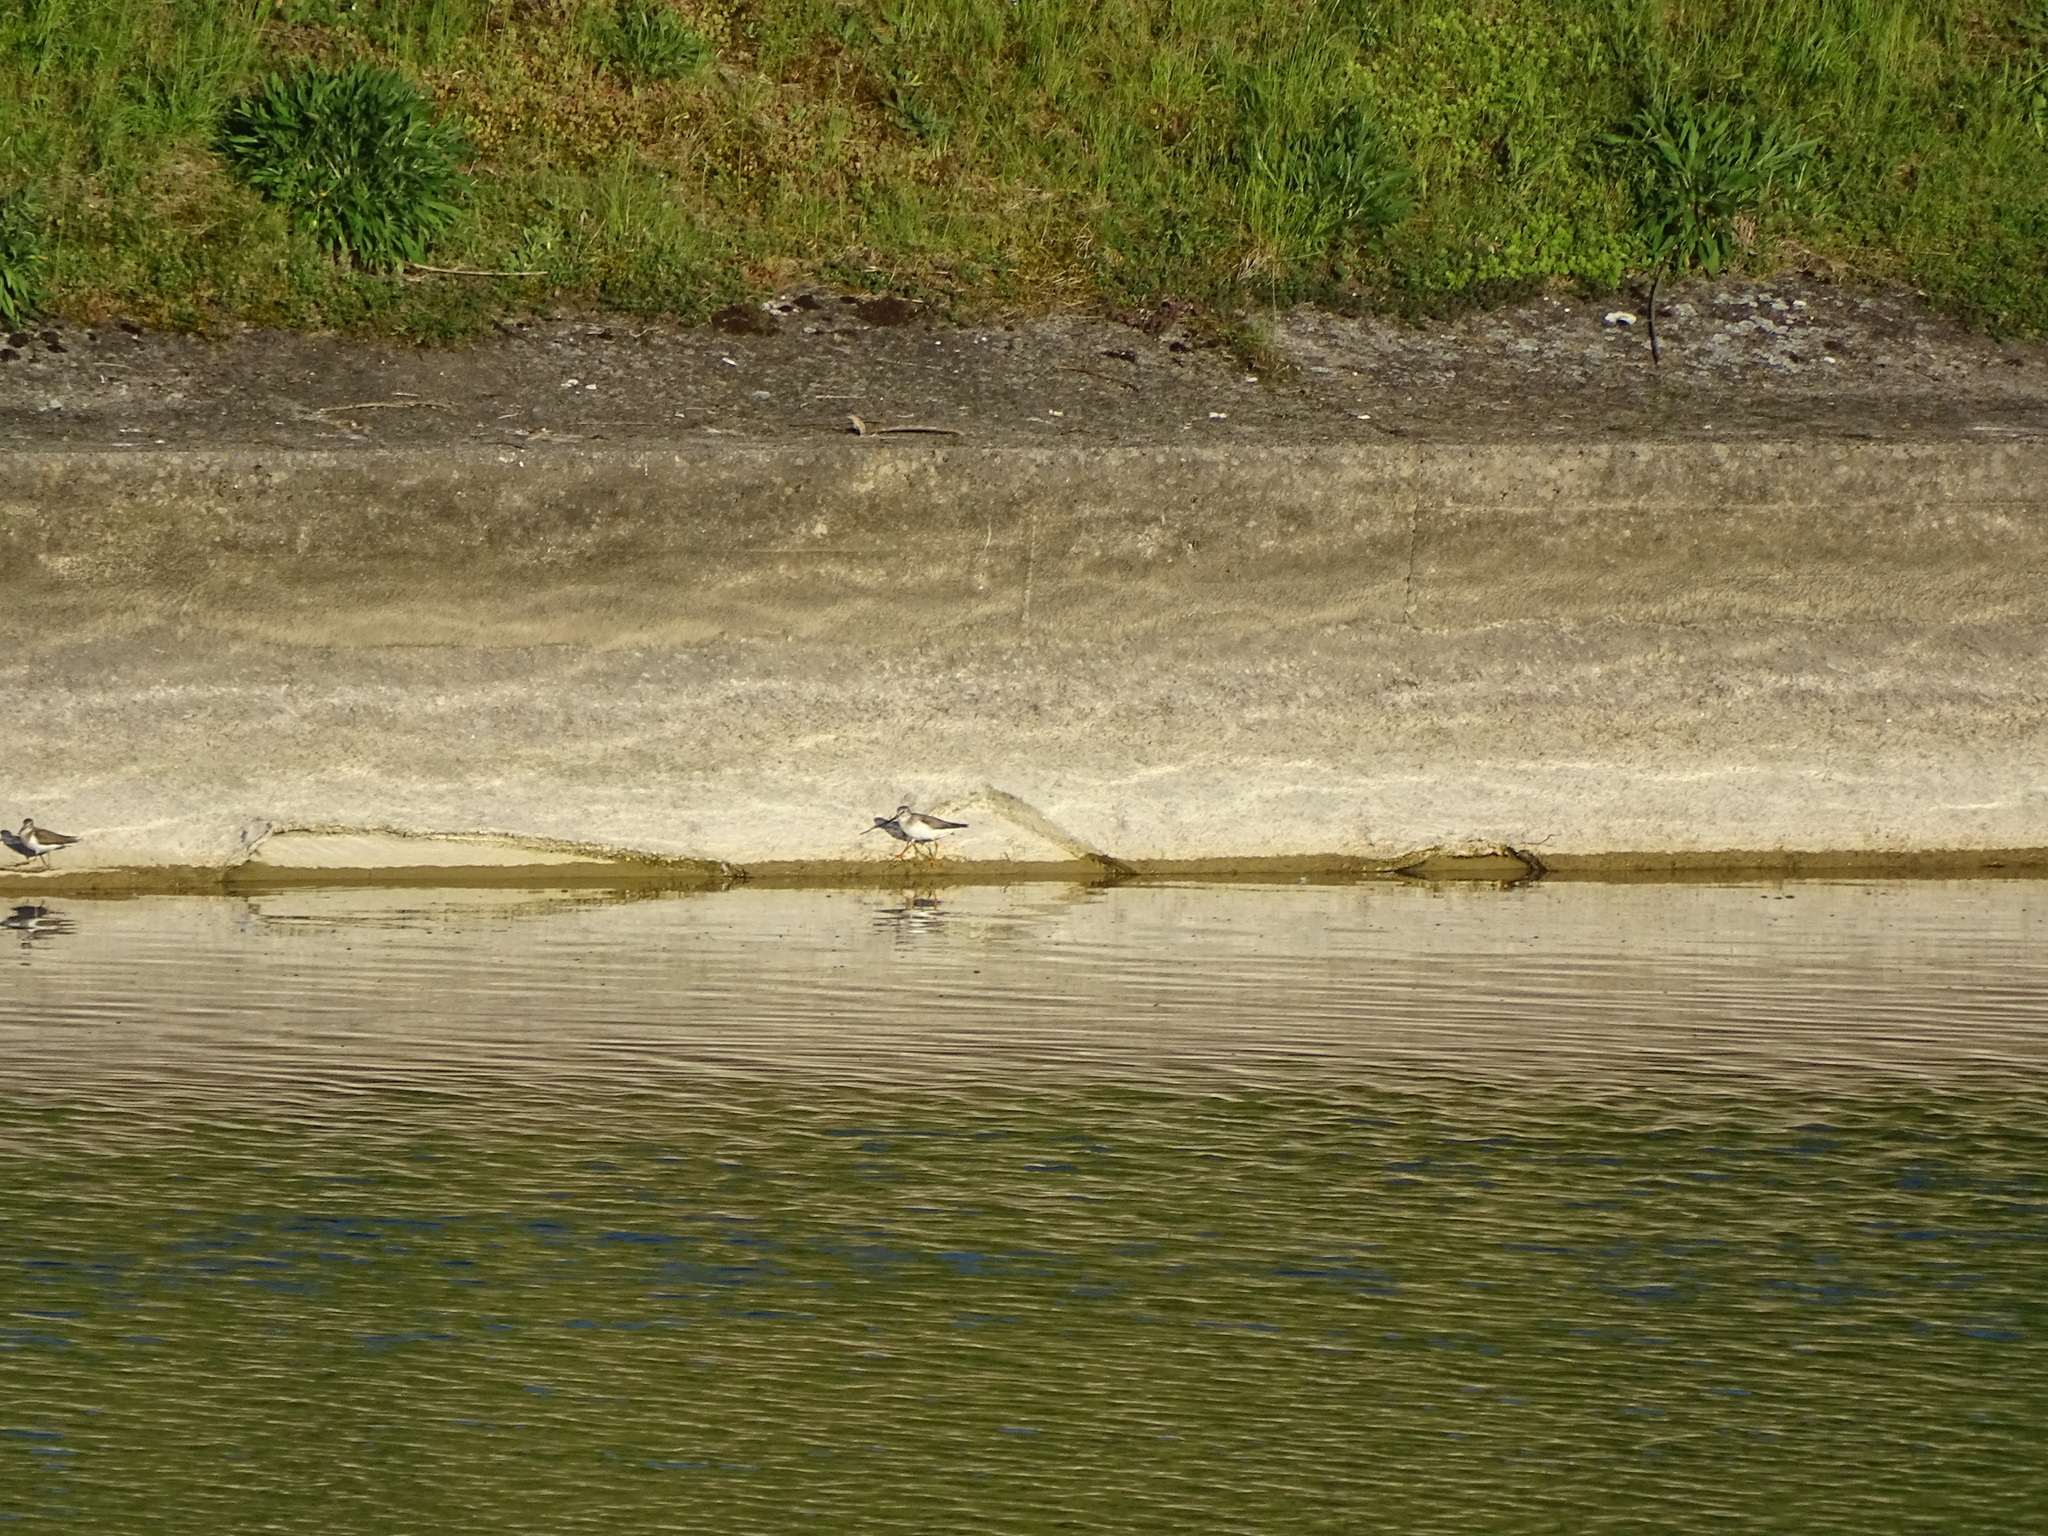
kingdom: Animalia
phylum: Chordata
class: Aves
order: Charadriiformes
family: Scolopacidae
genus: Xenus
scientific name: Xenus cinereus
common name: Terek sandpiper
